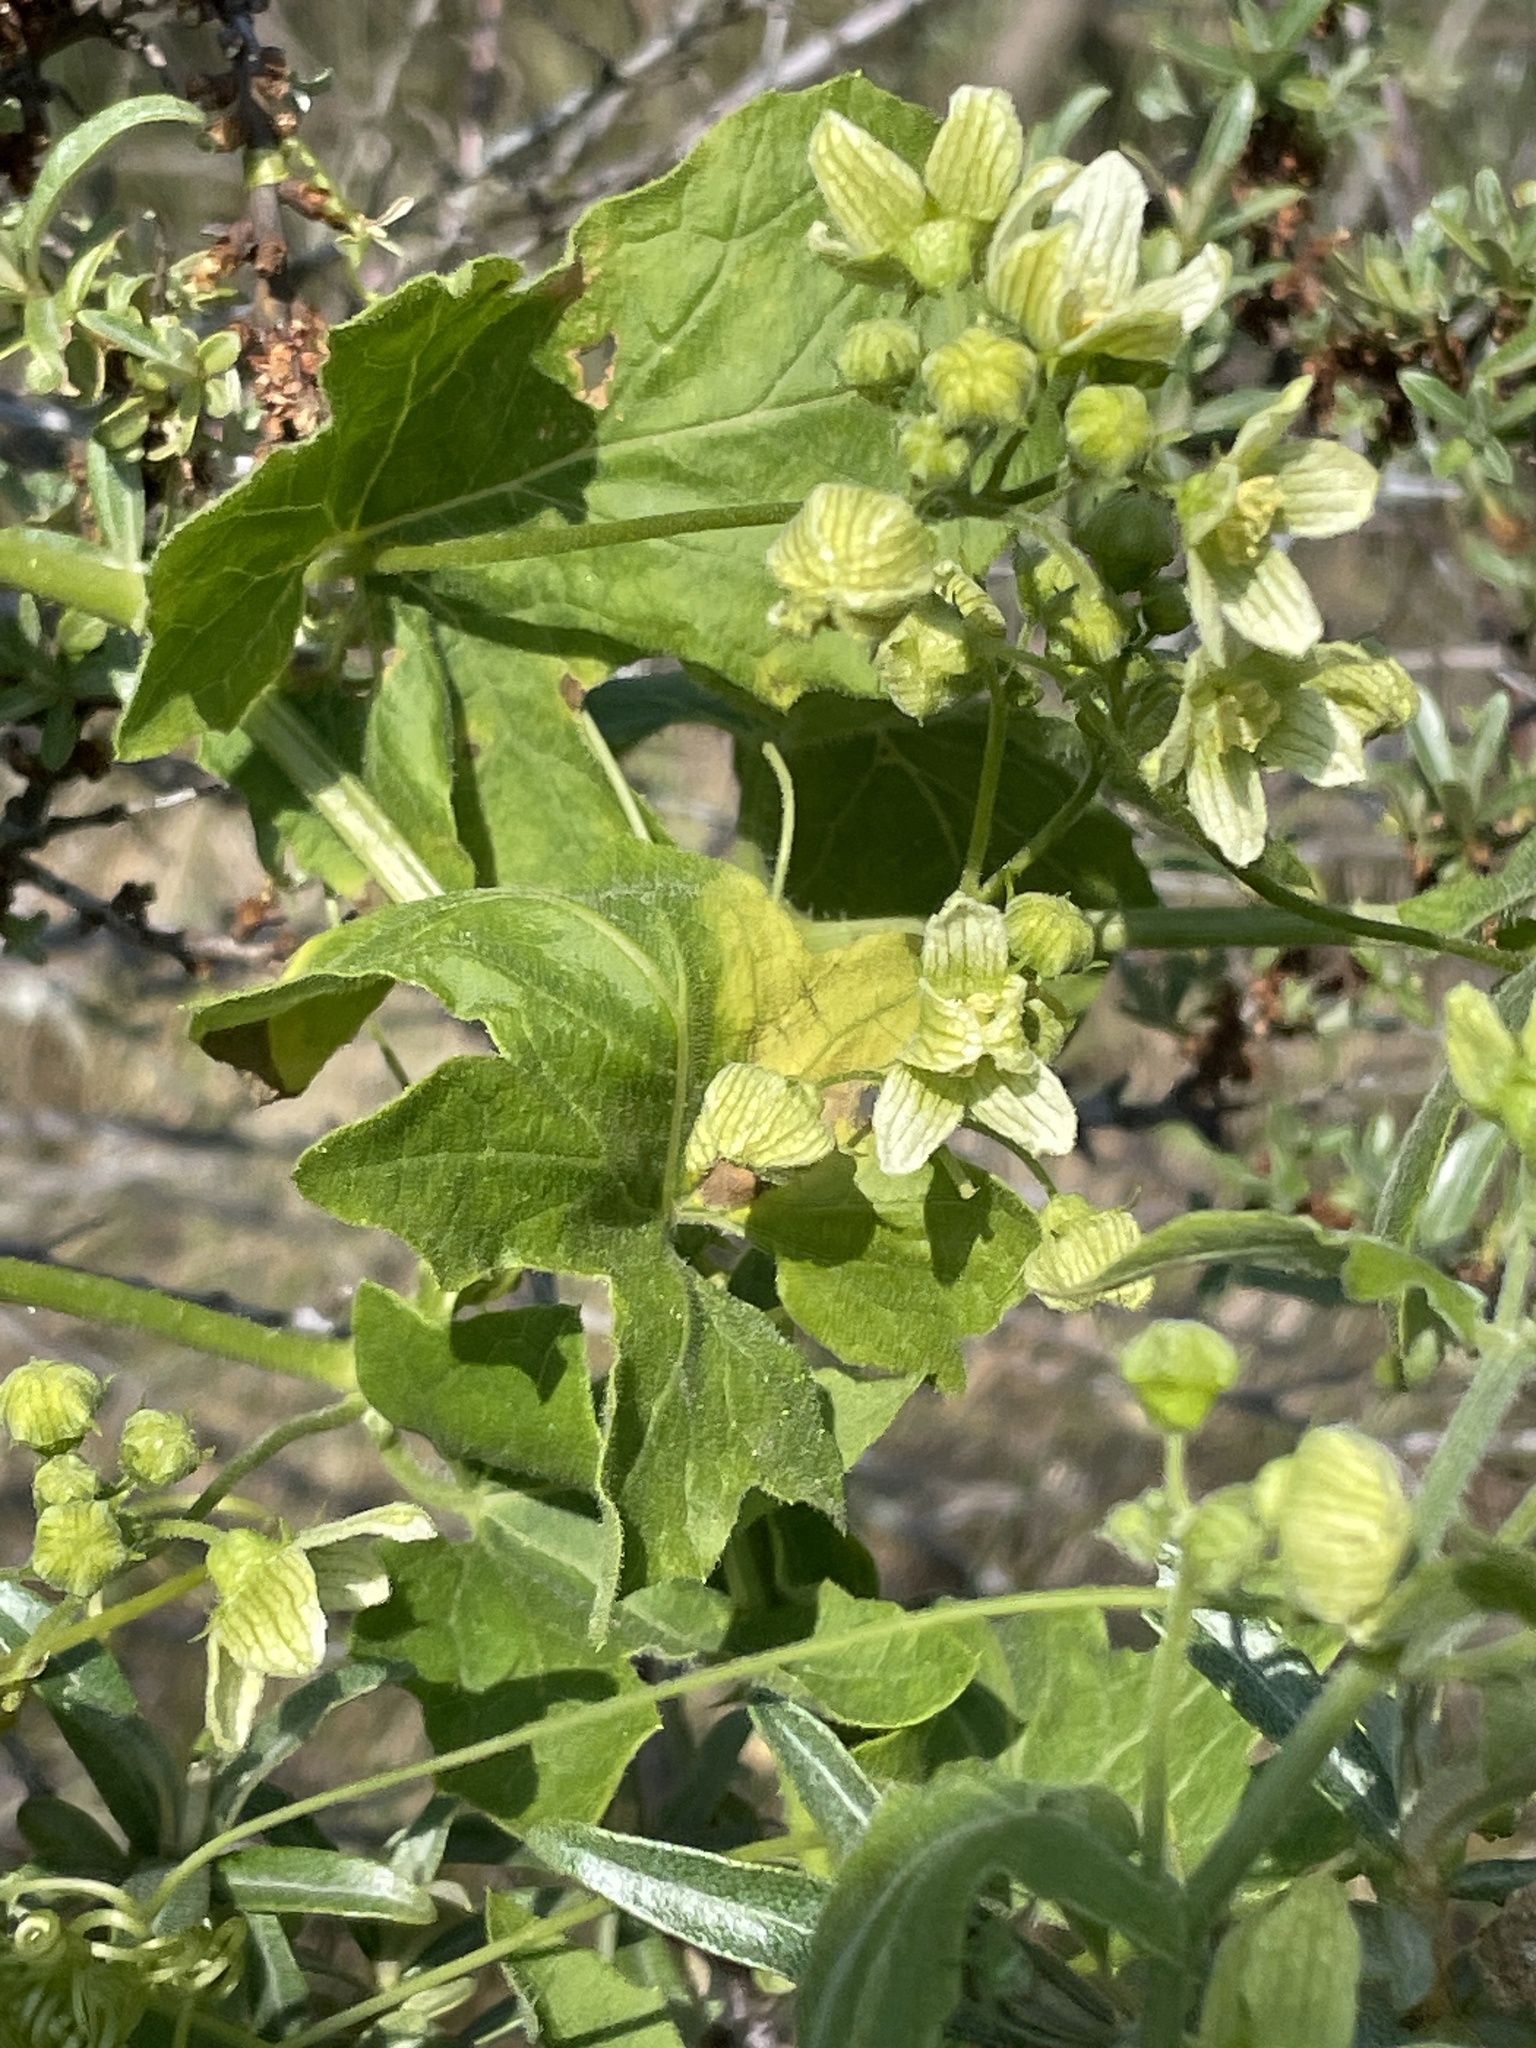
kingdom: Plantae
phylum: Tracheophyta
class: Magnoliopsida
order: Cucurbitales
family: Cucurbitaceae
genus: Bryonia
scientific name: Bryonia dioica
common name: White bryony
